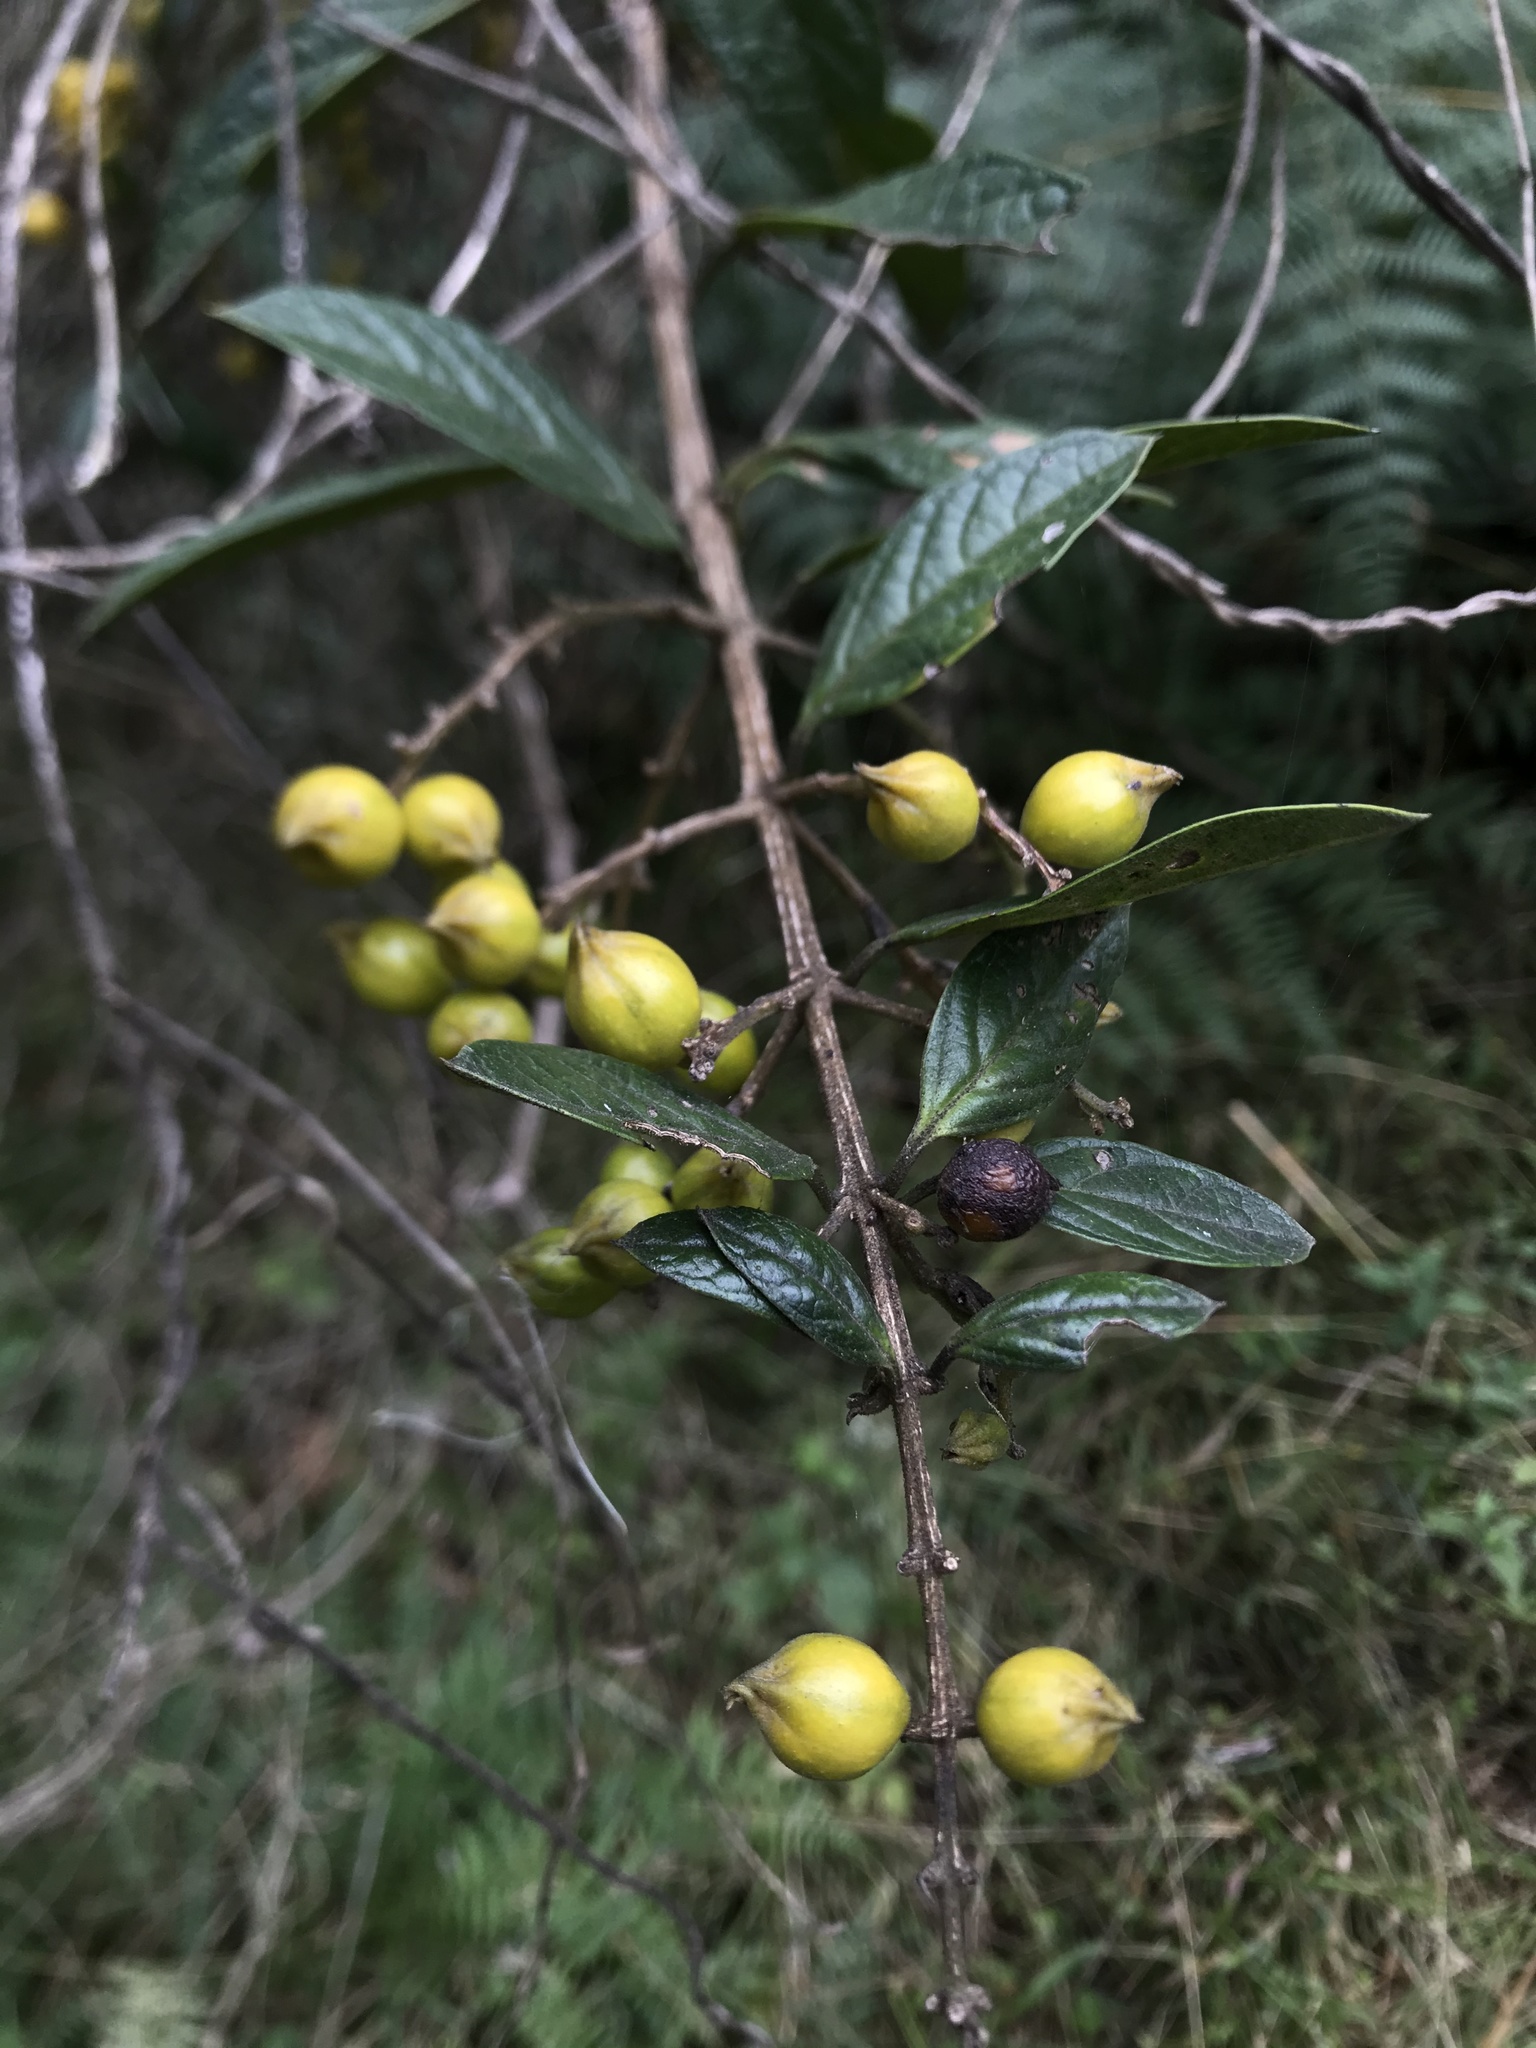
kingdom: Plantae
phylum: Tracheophyta
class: Magnoliopsida
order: Lamiales
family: Verbenaceae
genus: Duranta
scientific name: Duranta mutisii
